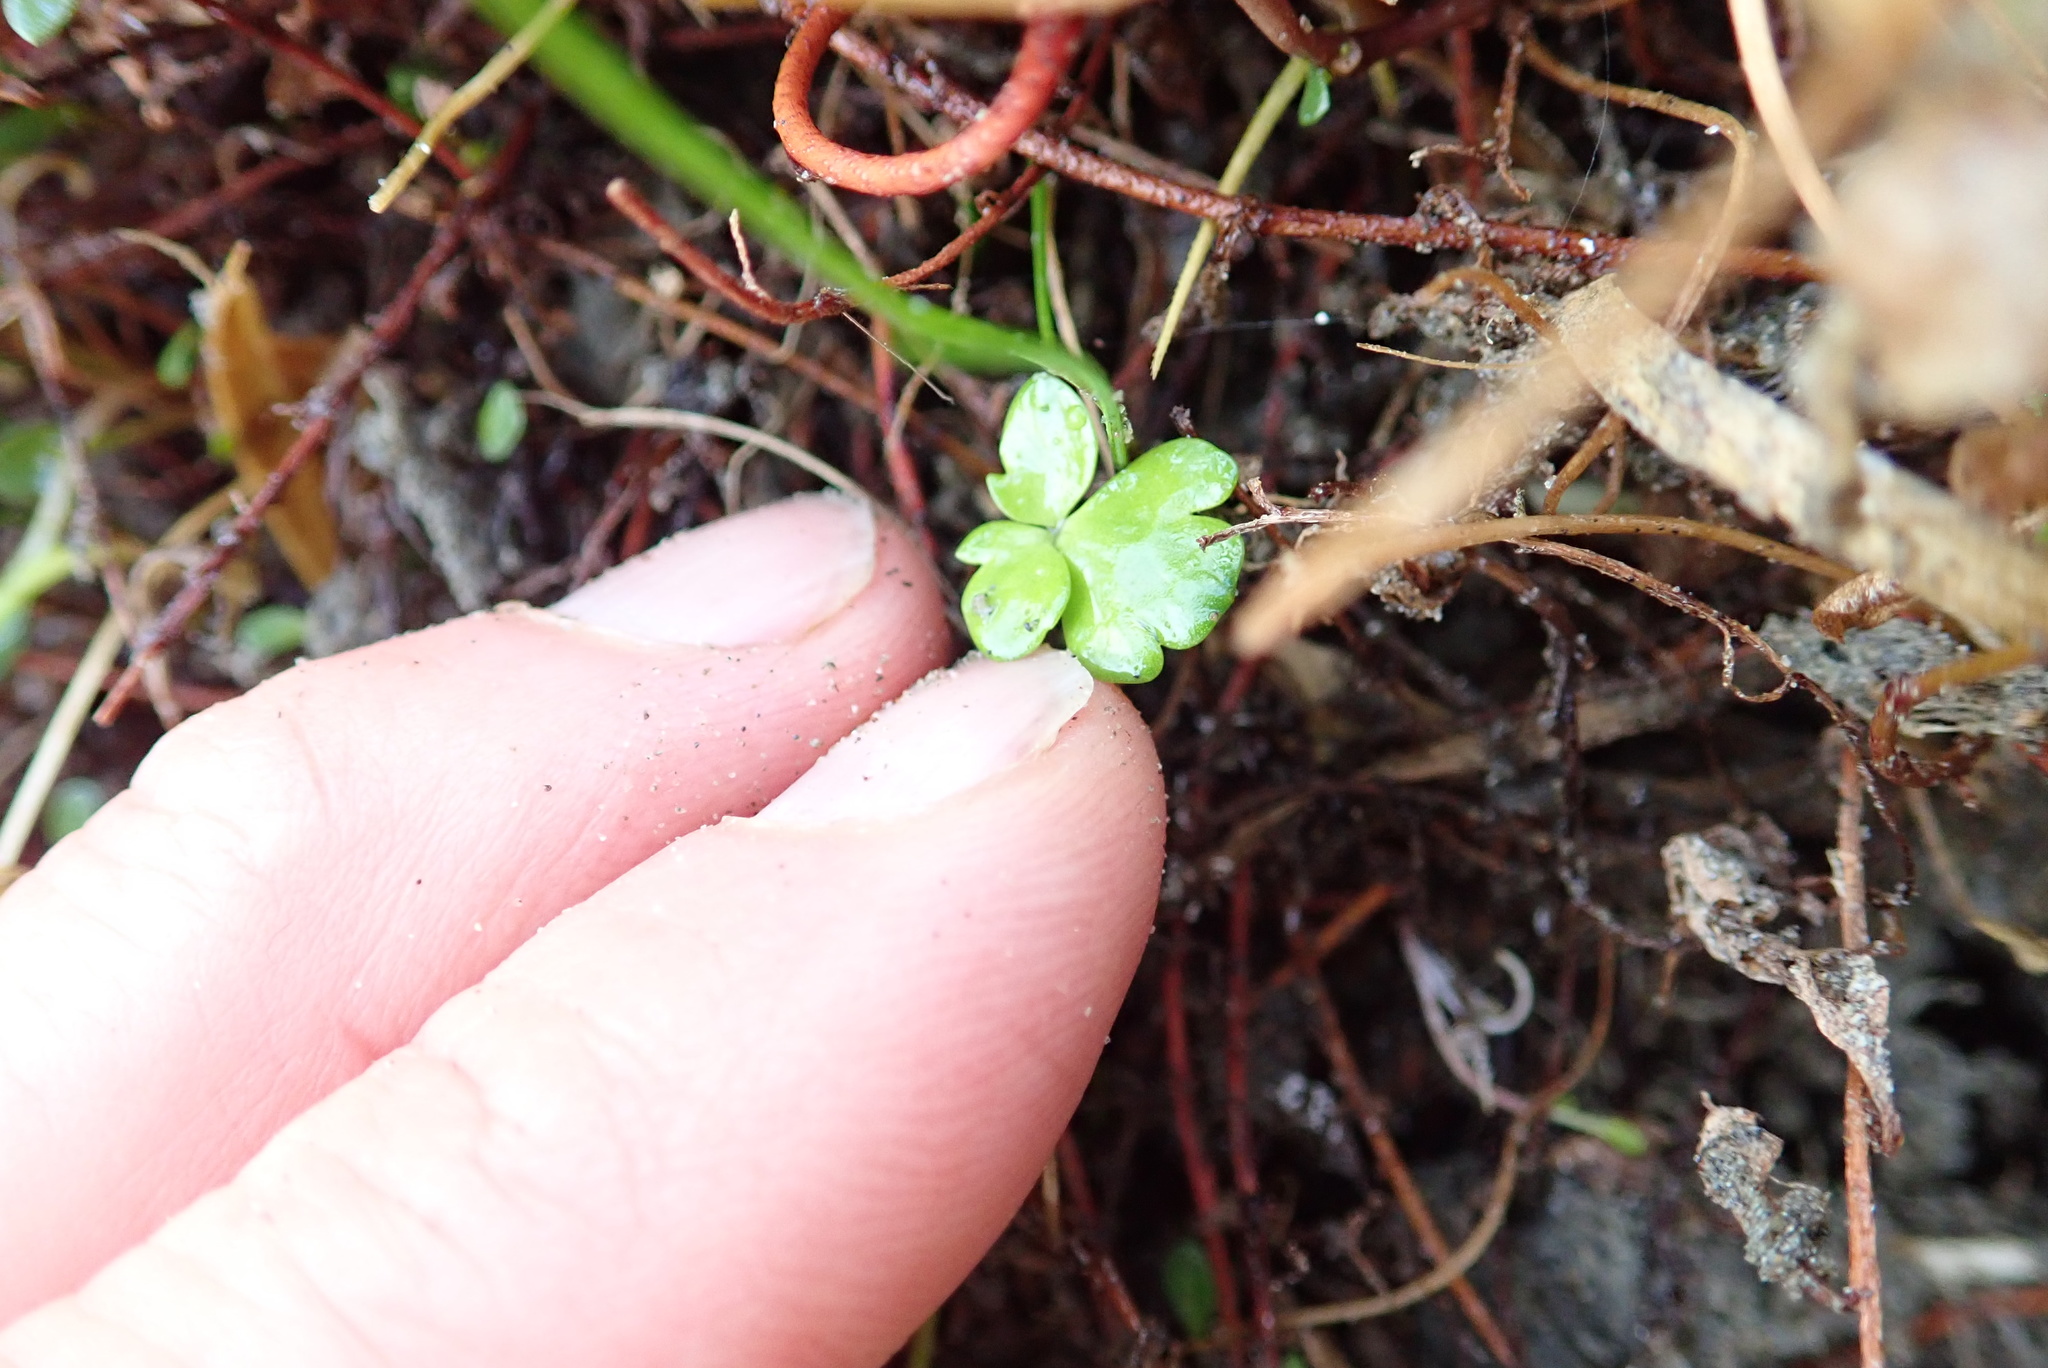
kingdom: Plantae
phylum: Tracheophyta
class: Magnoliopsida
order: Ranunculales
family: Ranunculaceae
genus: Ranunculus
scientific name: Ranunculus acaulis
